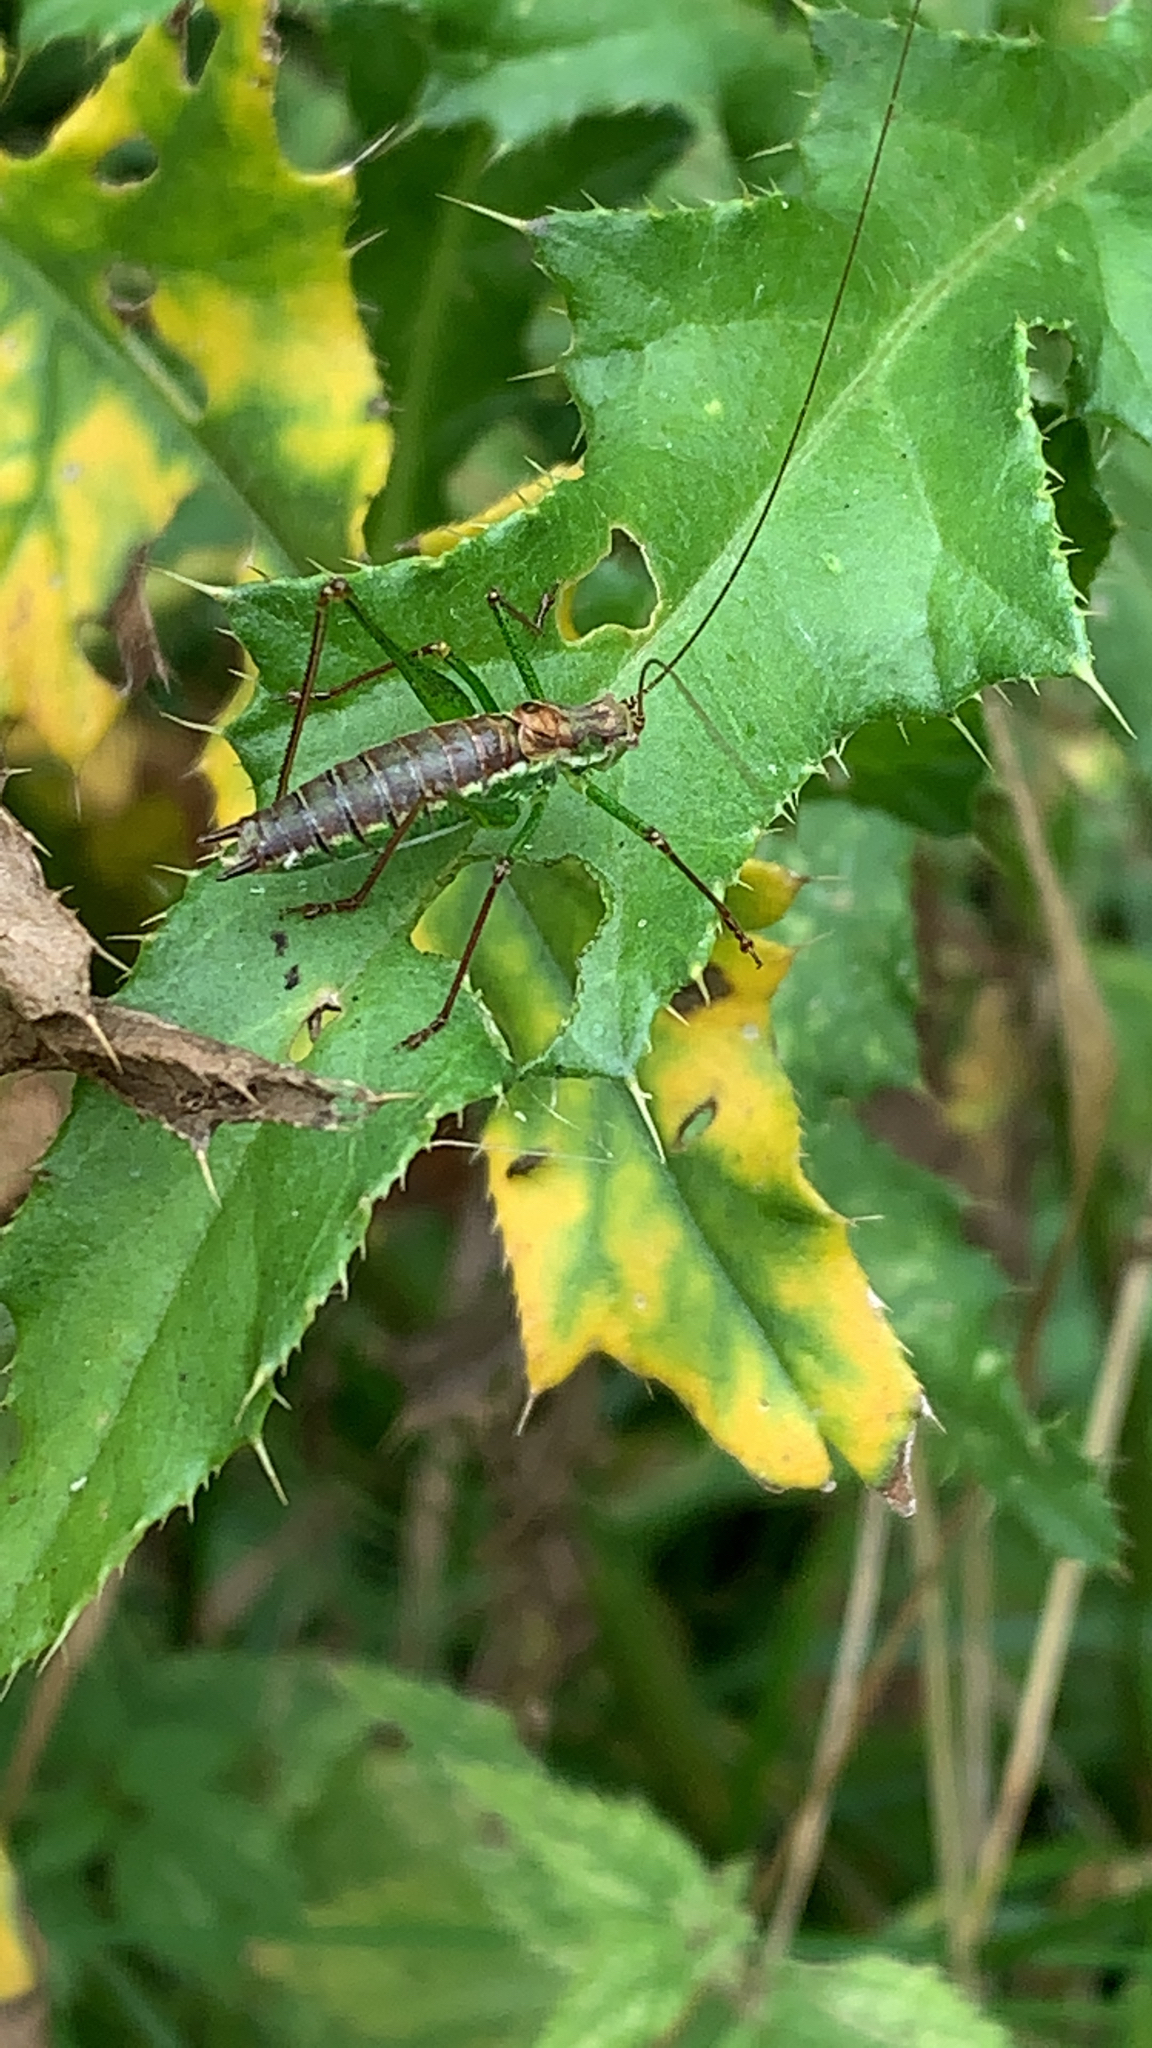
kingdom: Animalia
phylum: Arthropoda
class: Insecta
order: Orthoptera
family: Tettigoniidae
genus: Leptophyes
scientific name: Leptophyes albovittata
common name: Striped bush-cricket
